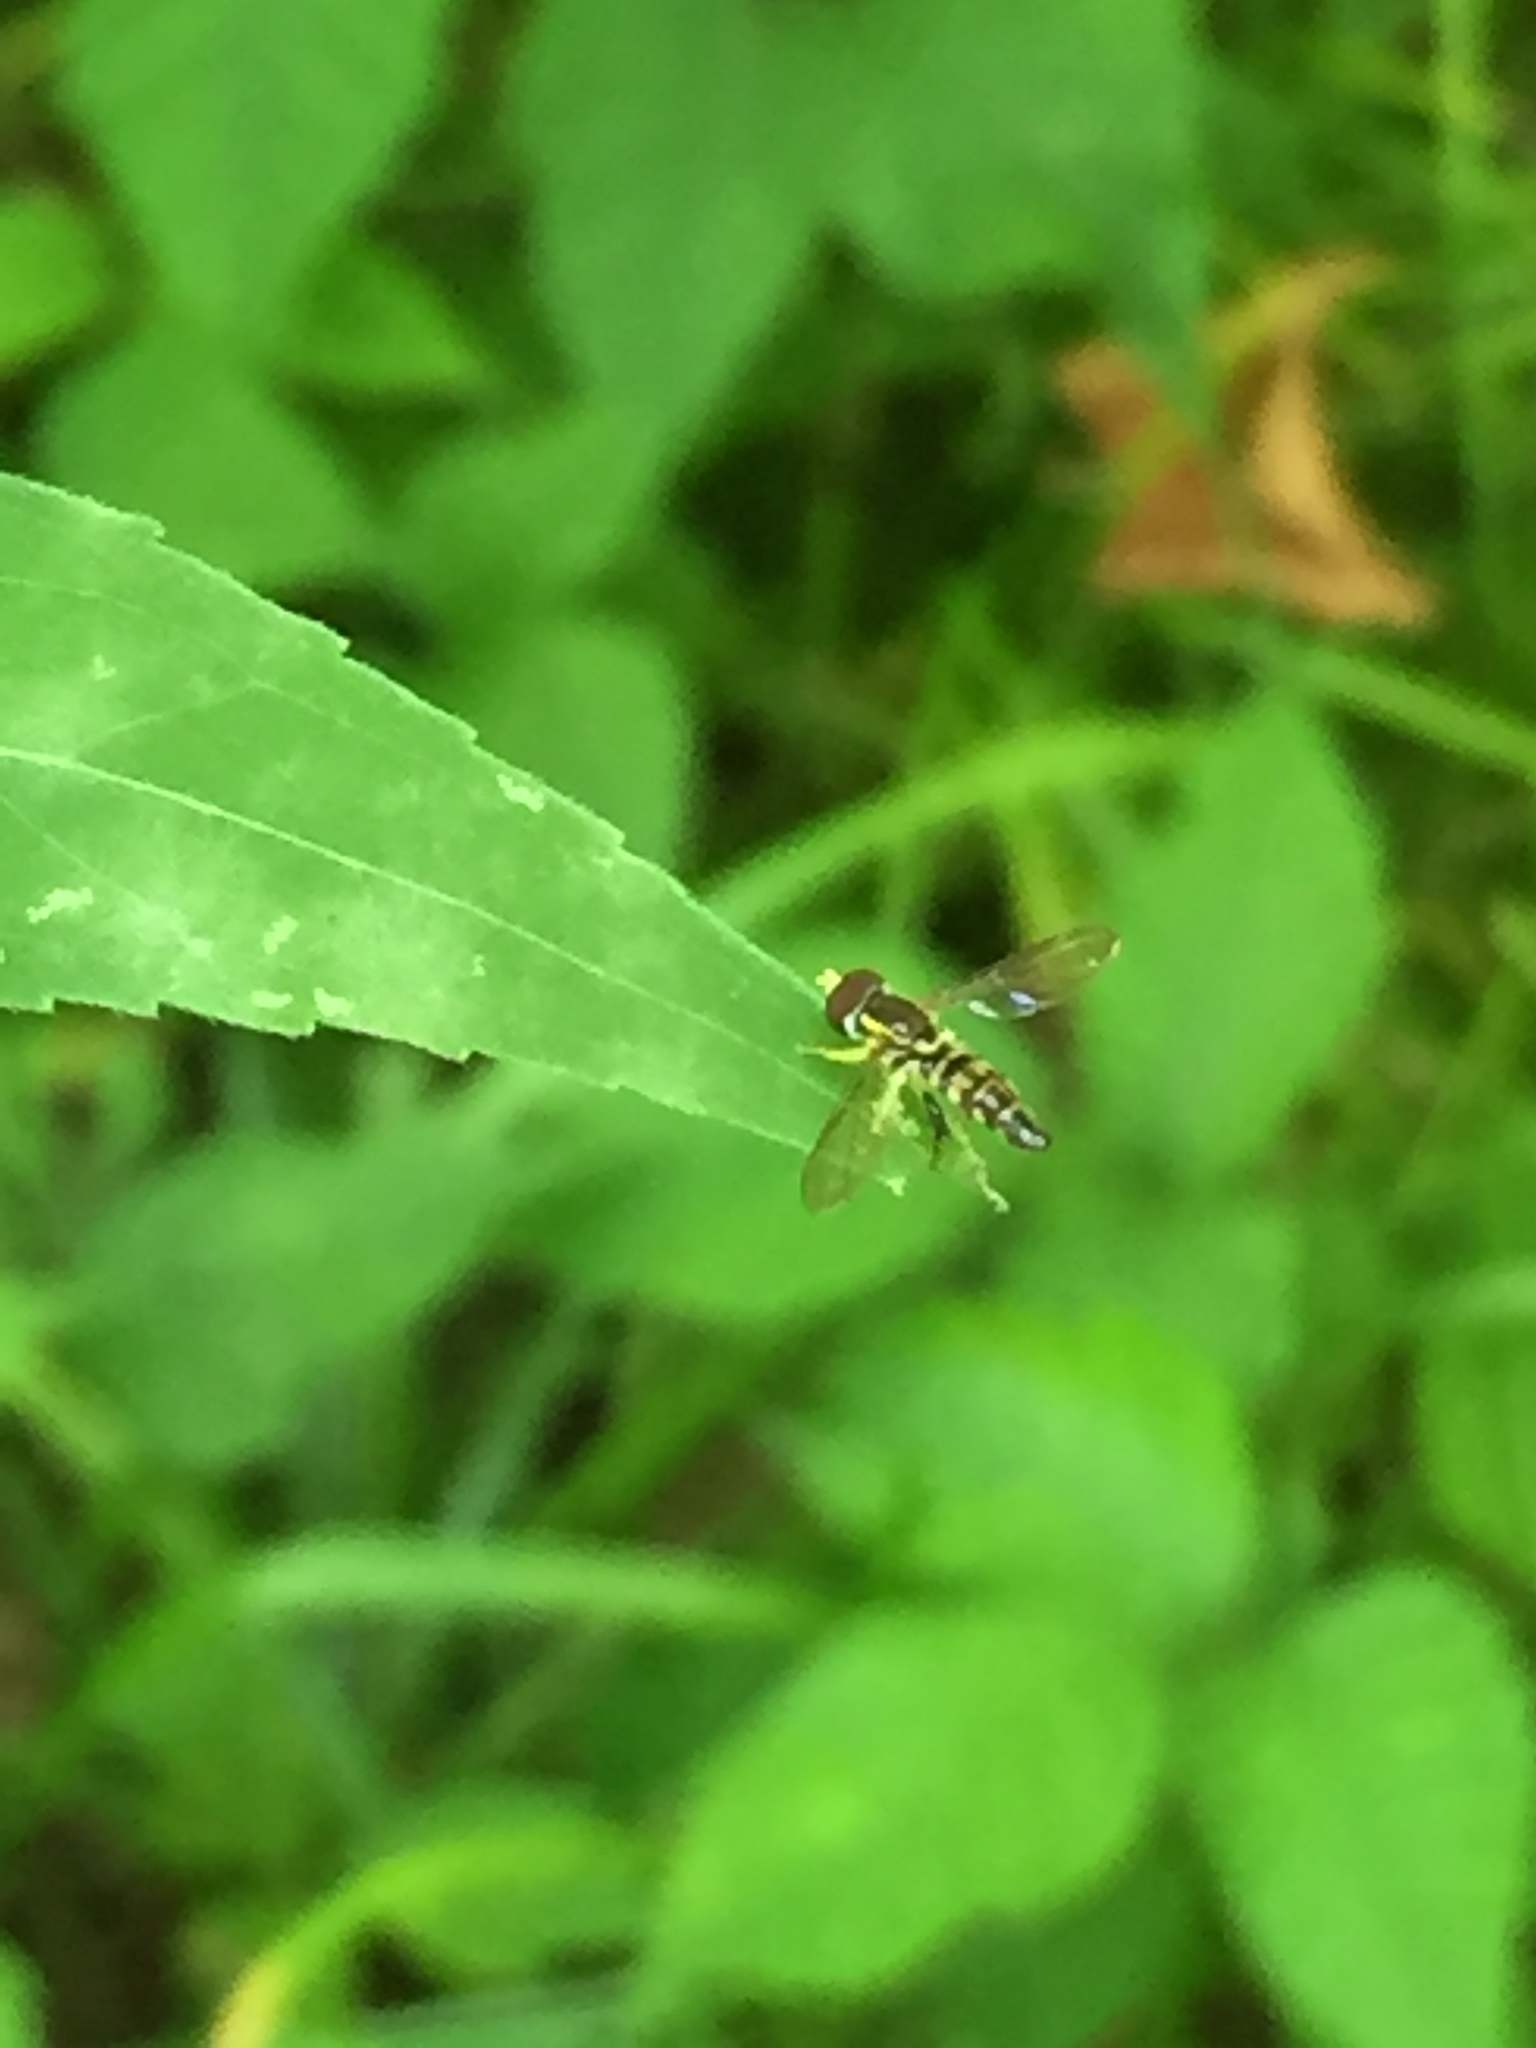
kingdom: Animalia
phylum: Arthropoda
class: Insecta
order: Diptera
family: Syrphidae
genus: Toxomerus
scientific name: Toxomerus geminatus
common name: Eastern calligrapher
